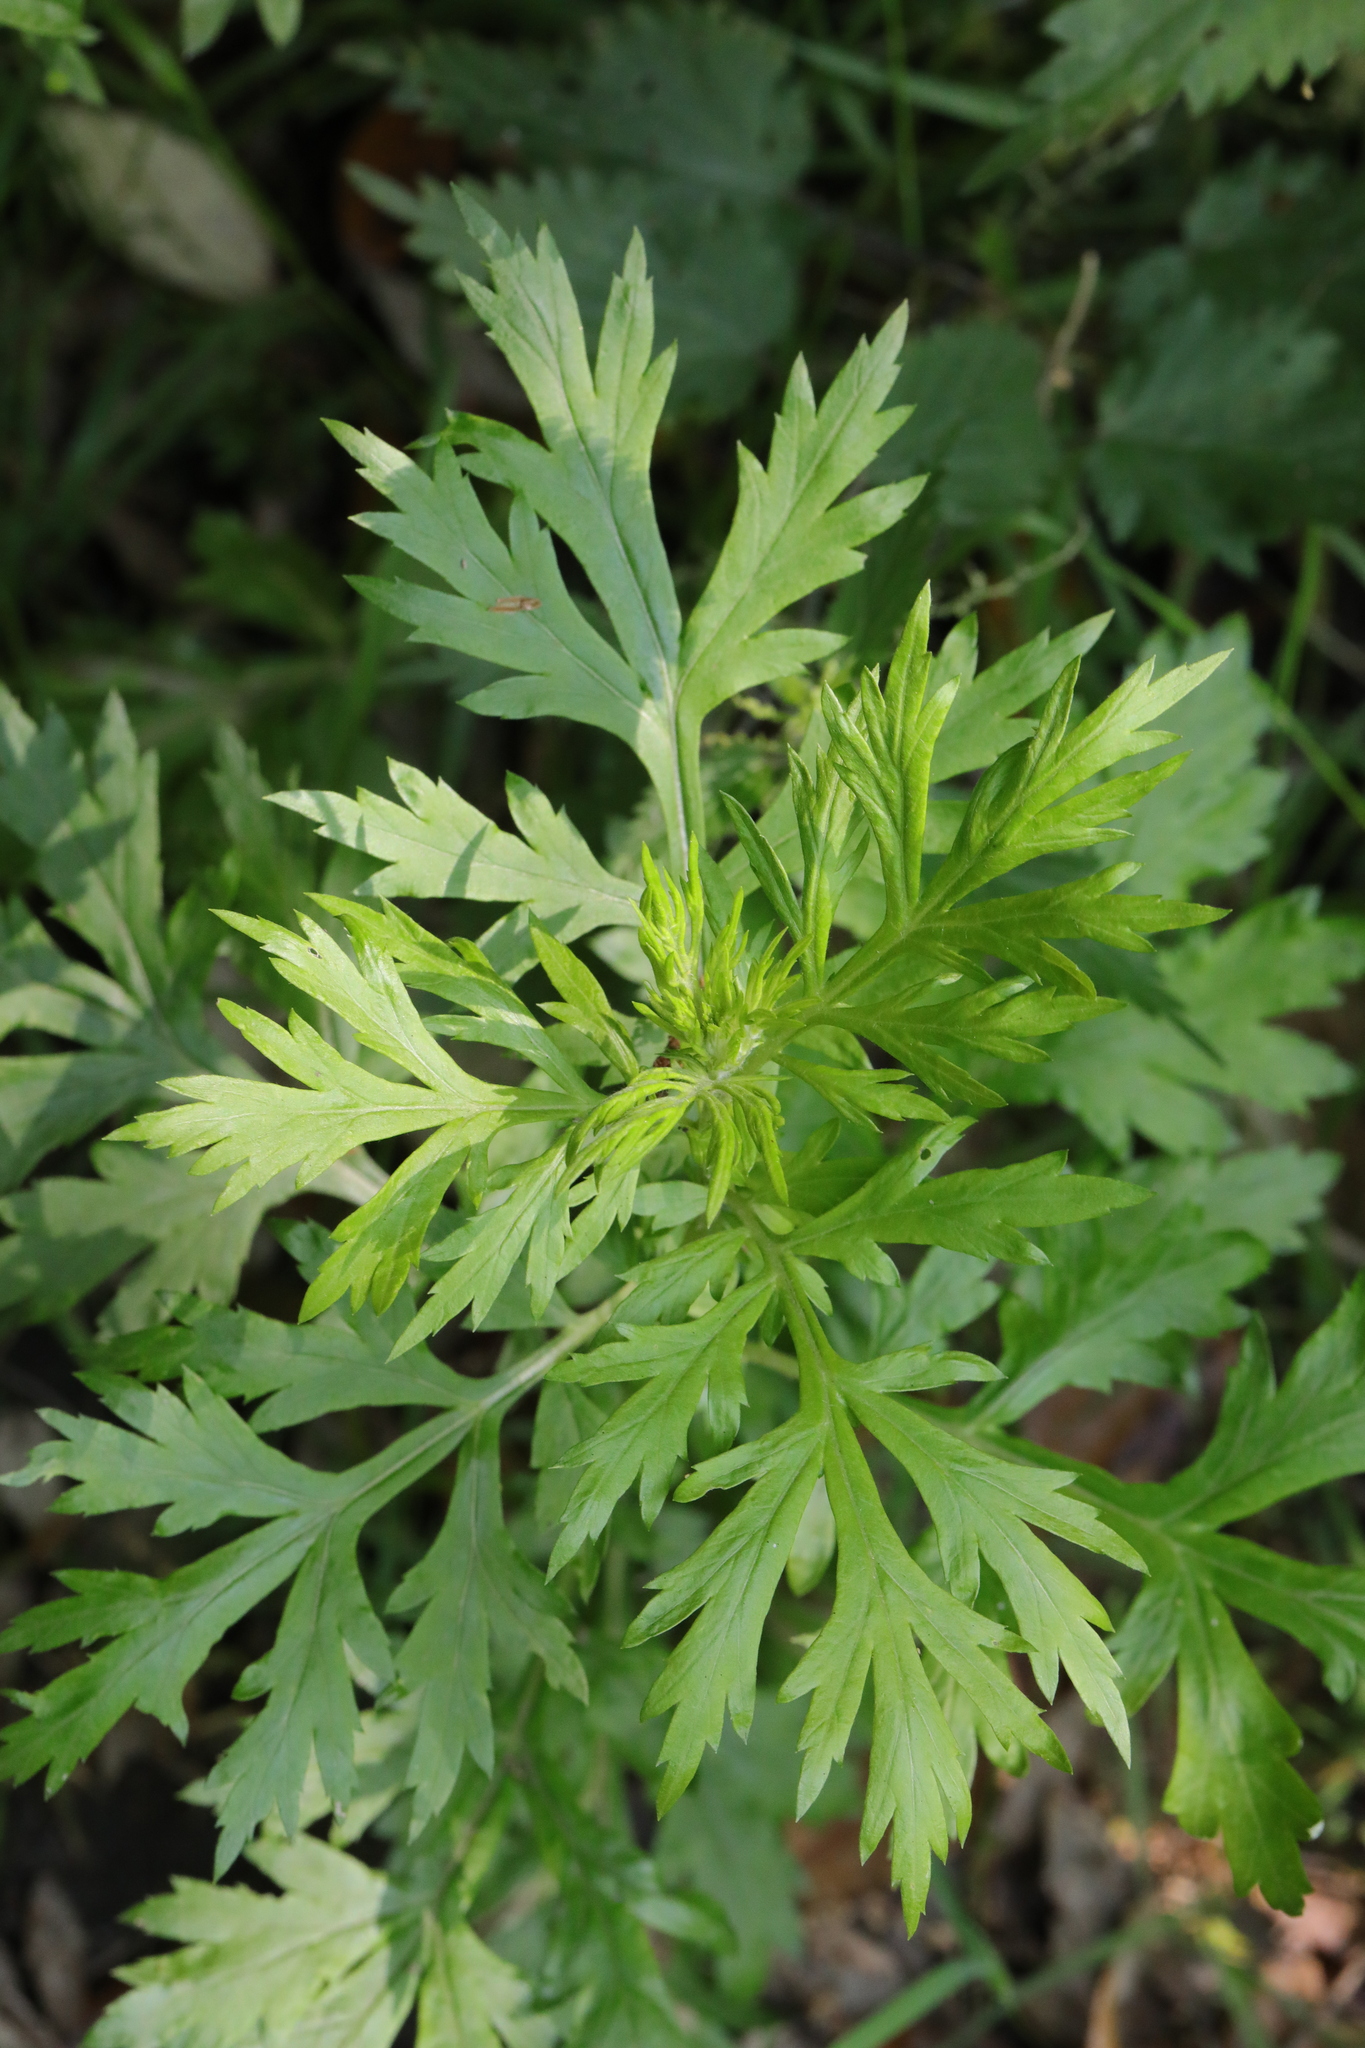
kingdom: Plantae
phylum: Tracheophyta
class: Magnoliopsida
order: Asterales
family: Asteraceae
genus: Artemisia
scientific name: Artemisia vulgaris
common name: Mugwort
